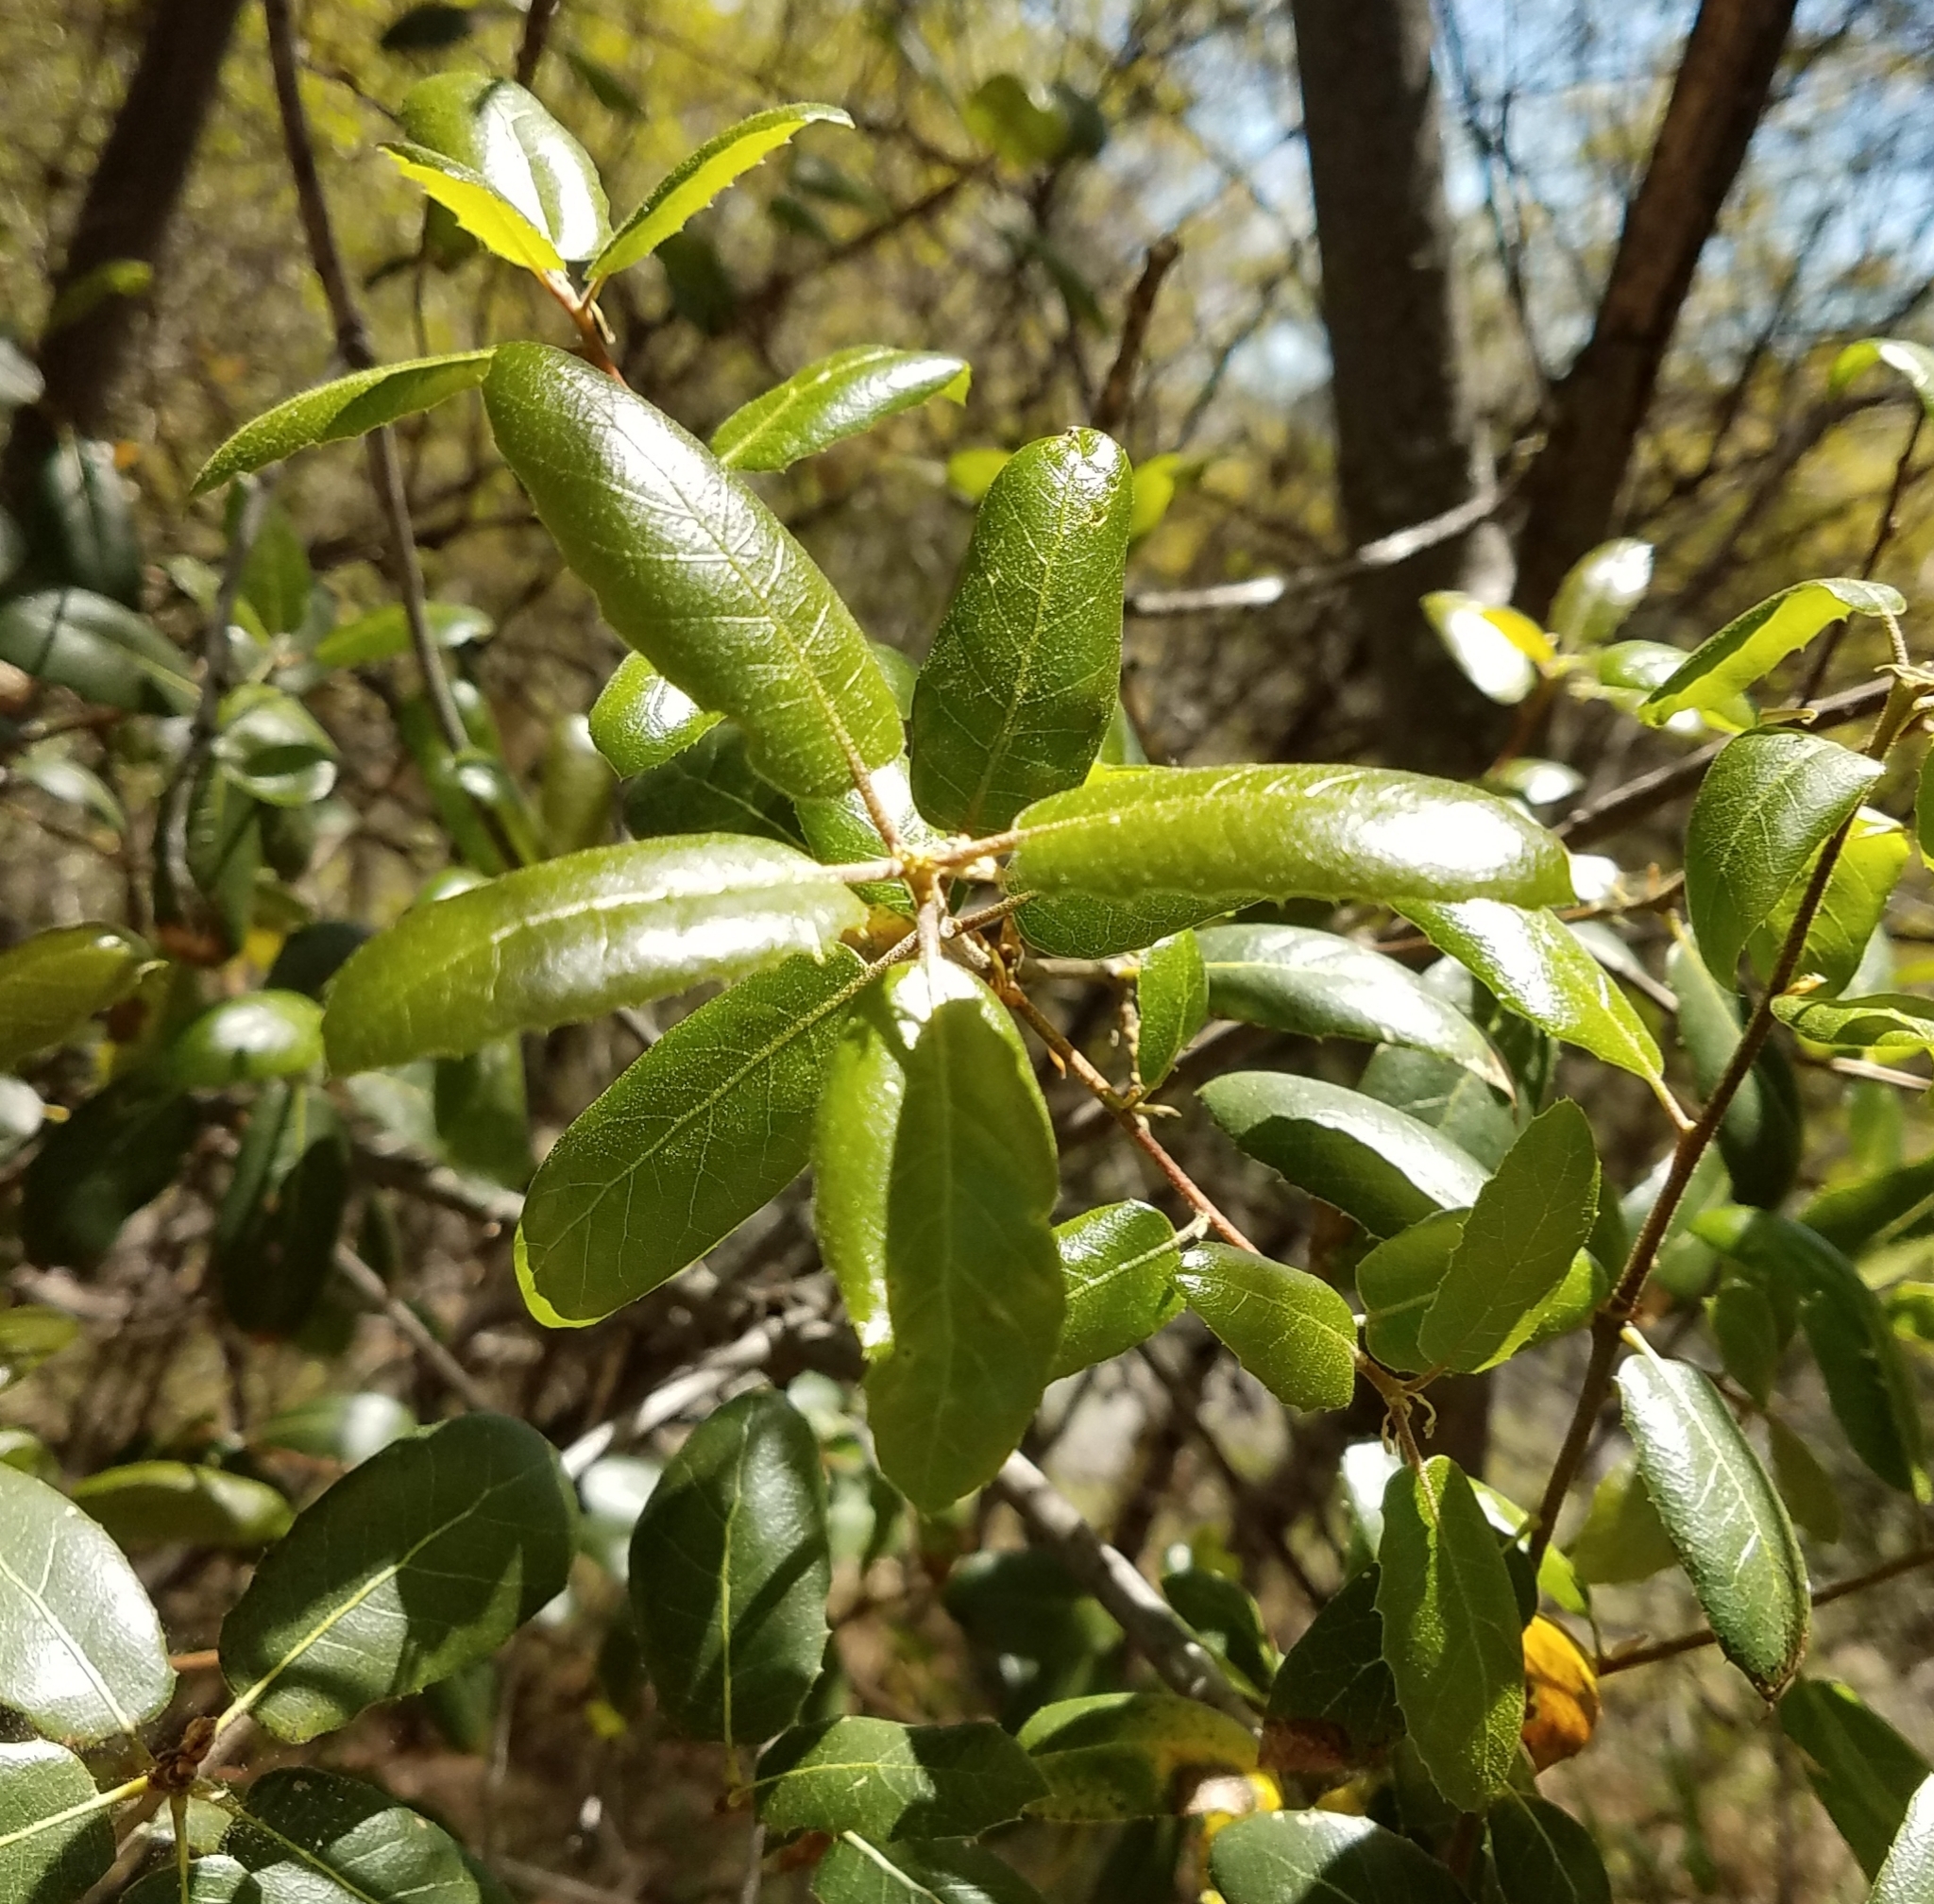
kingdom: Plantae
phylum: Tracheophyta
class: Magnoliopsida
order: Fagales
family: Fagaceae
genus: Quercus
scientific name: Quercus wislizeni
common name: Interior live oak
